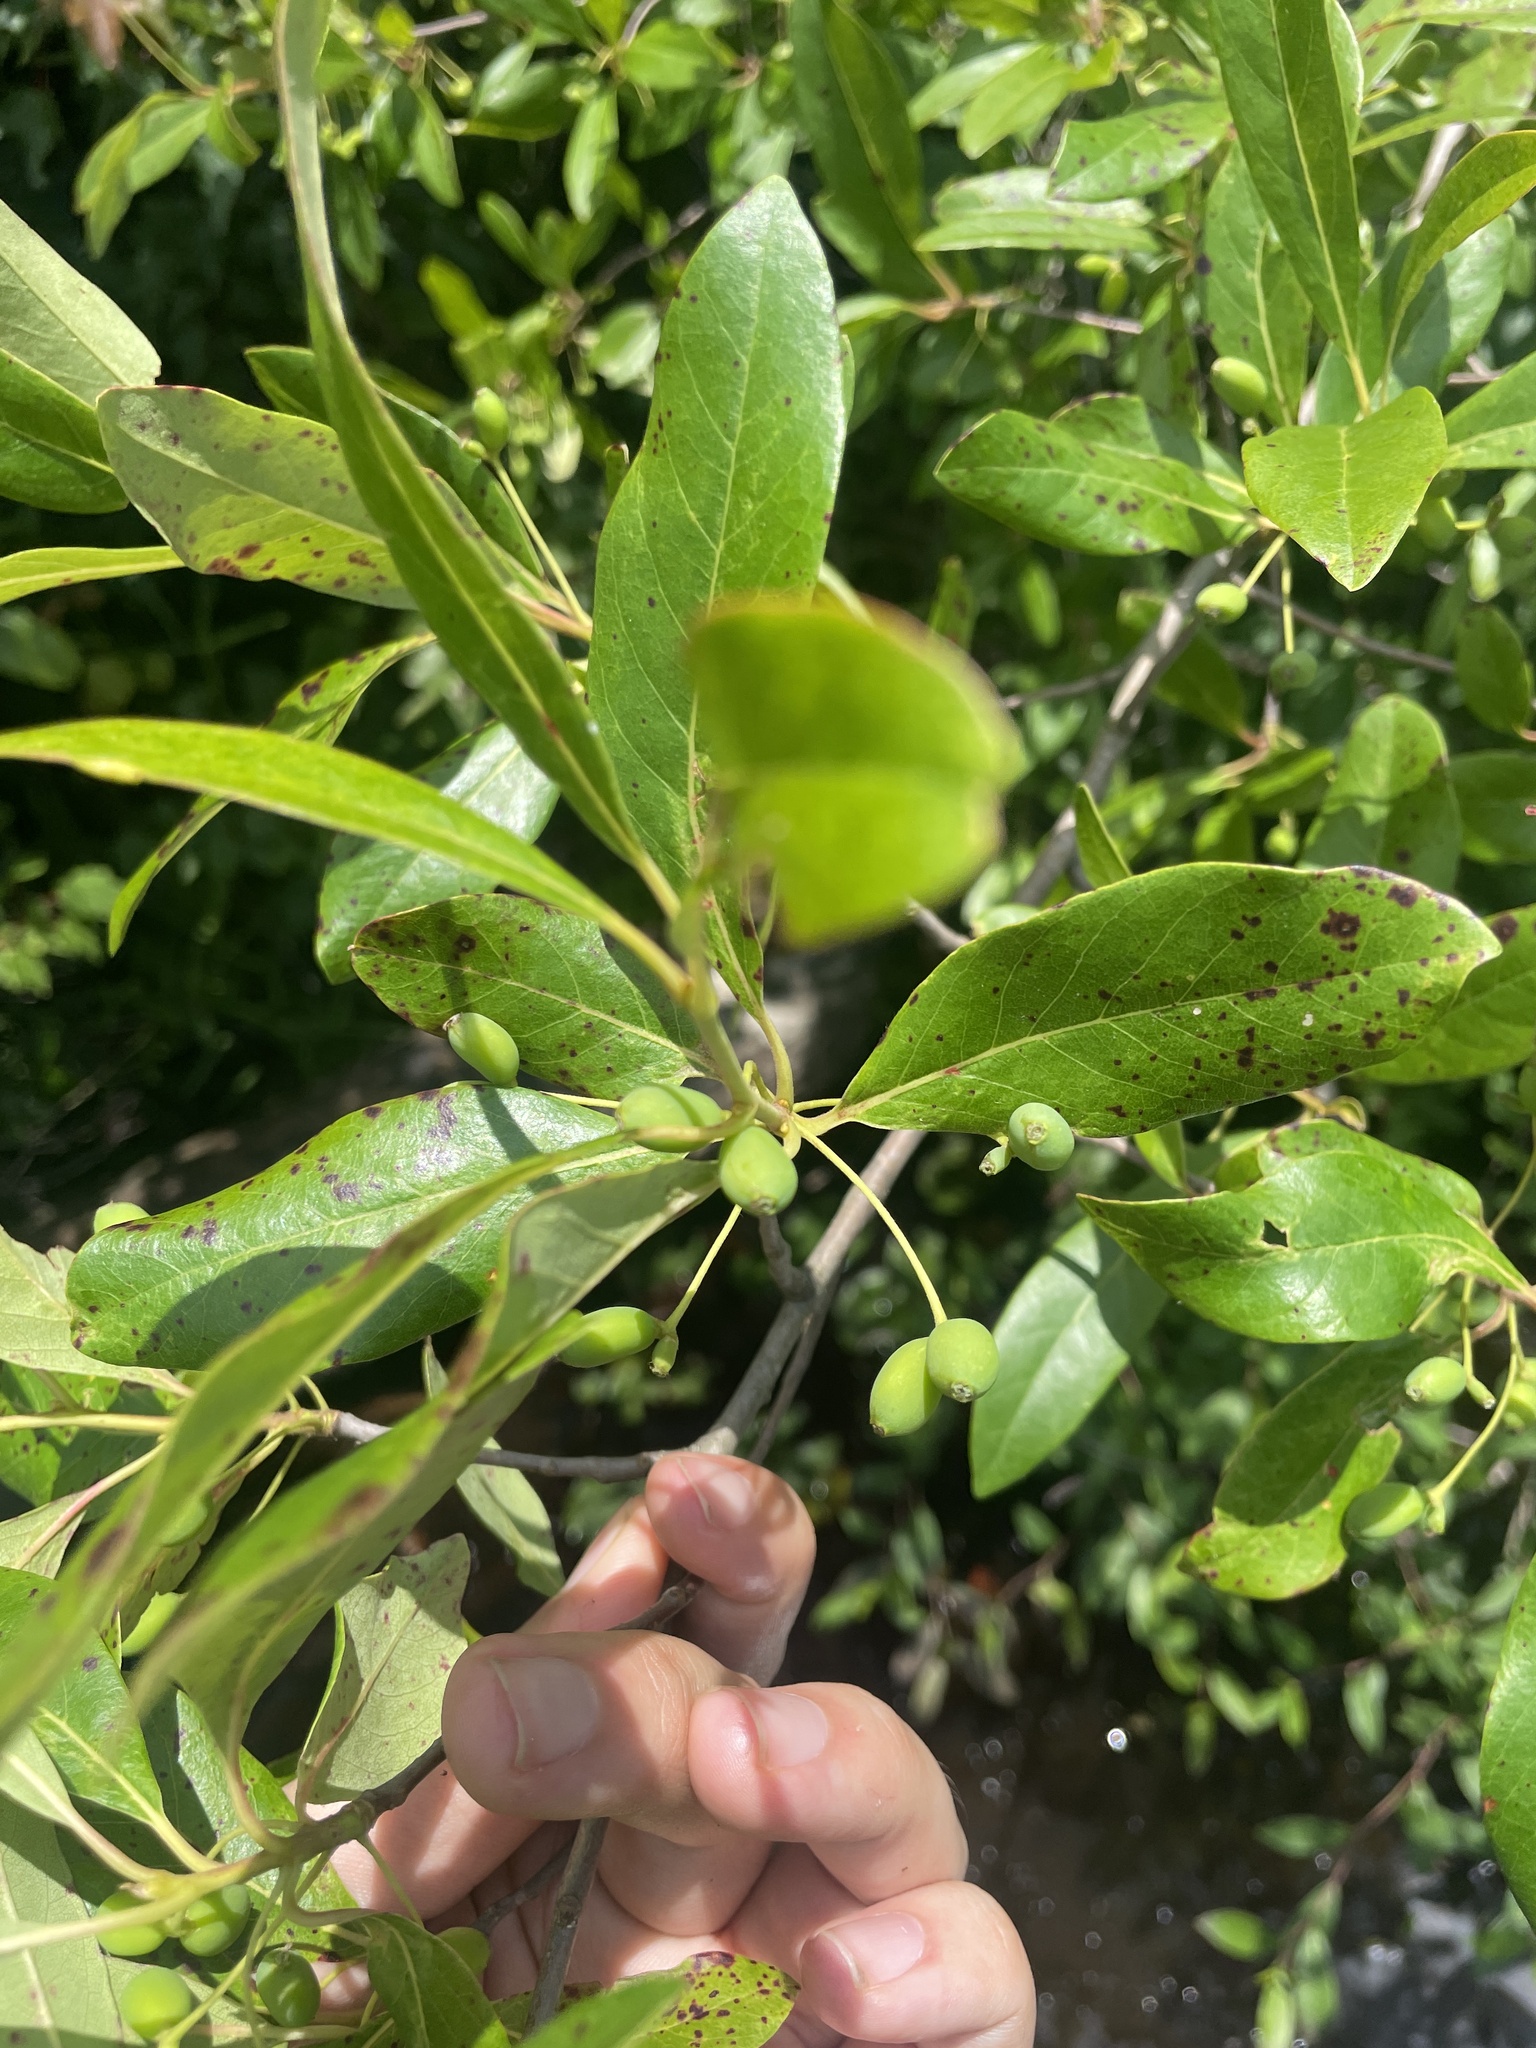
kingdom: Plantae
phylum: Tracheophyta
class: Magnoliopsida
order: Cornales
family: Nyssaceae
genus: Nyssa
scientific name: Nyssa biflora
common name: Swamp blackgum
